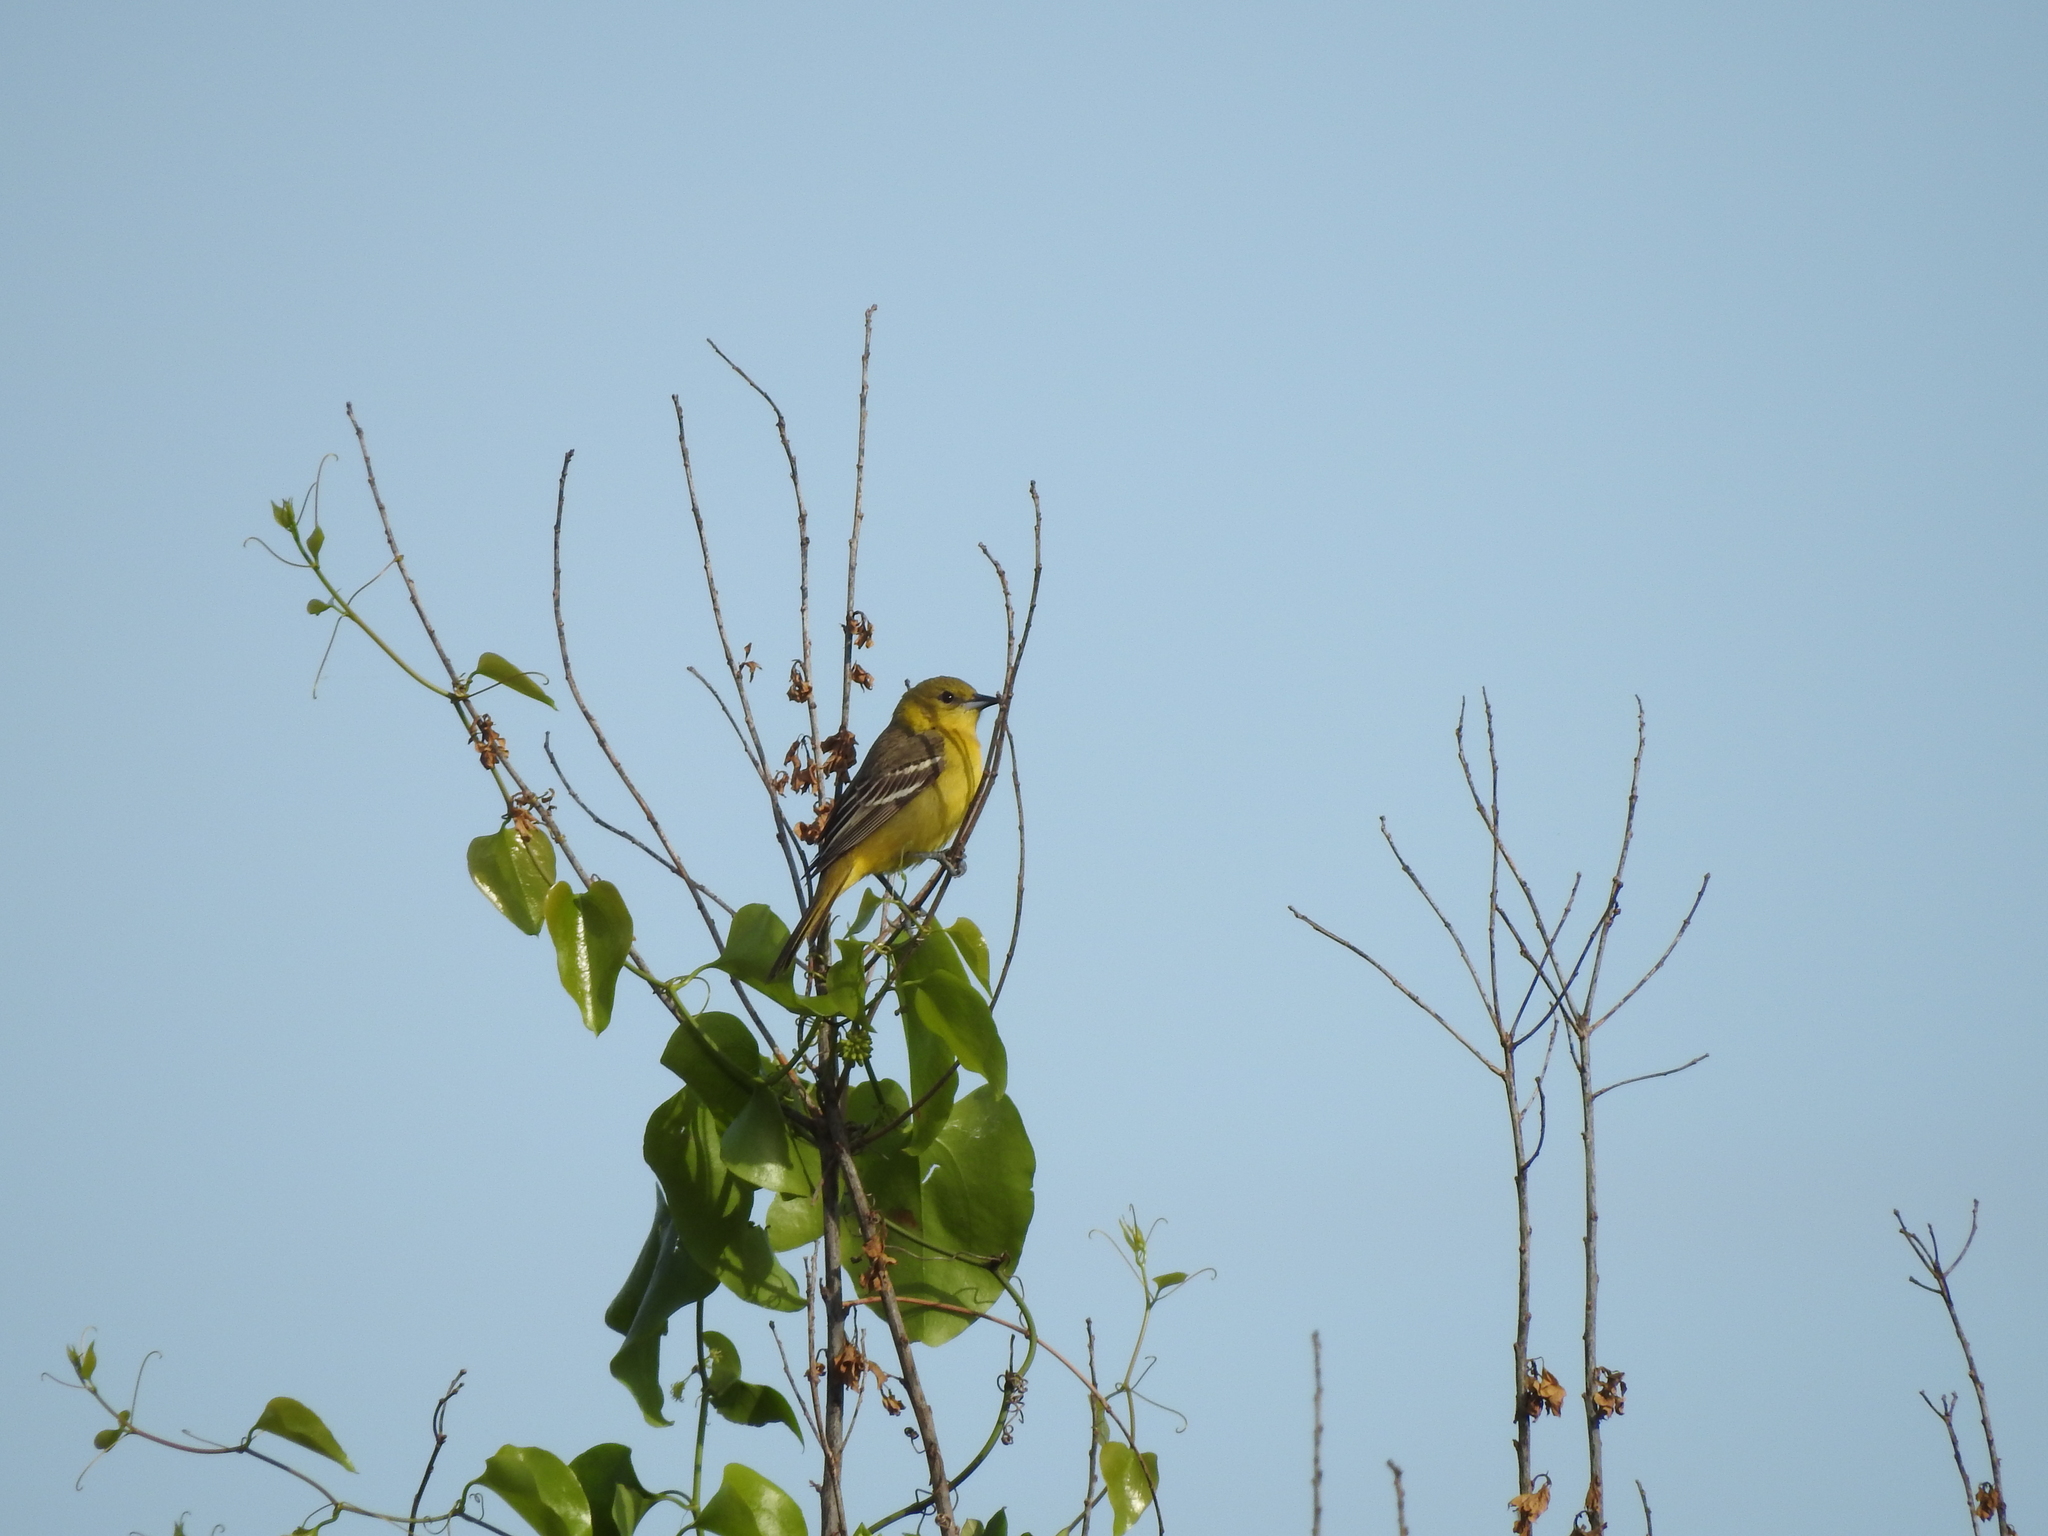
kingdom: Animalia
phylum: Chordata
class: Aves
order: Passeriformes
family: Icteridae
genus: Icterus
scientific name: Icterus spurius
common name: Orchard oriole
